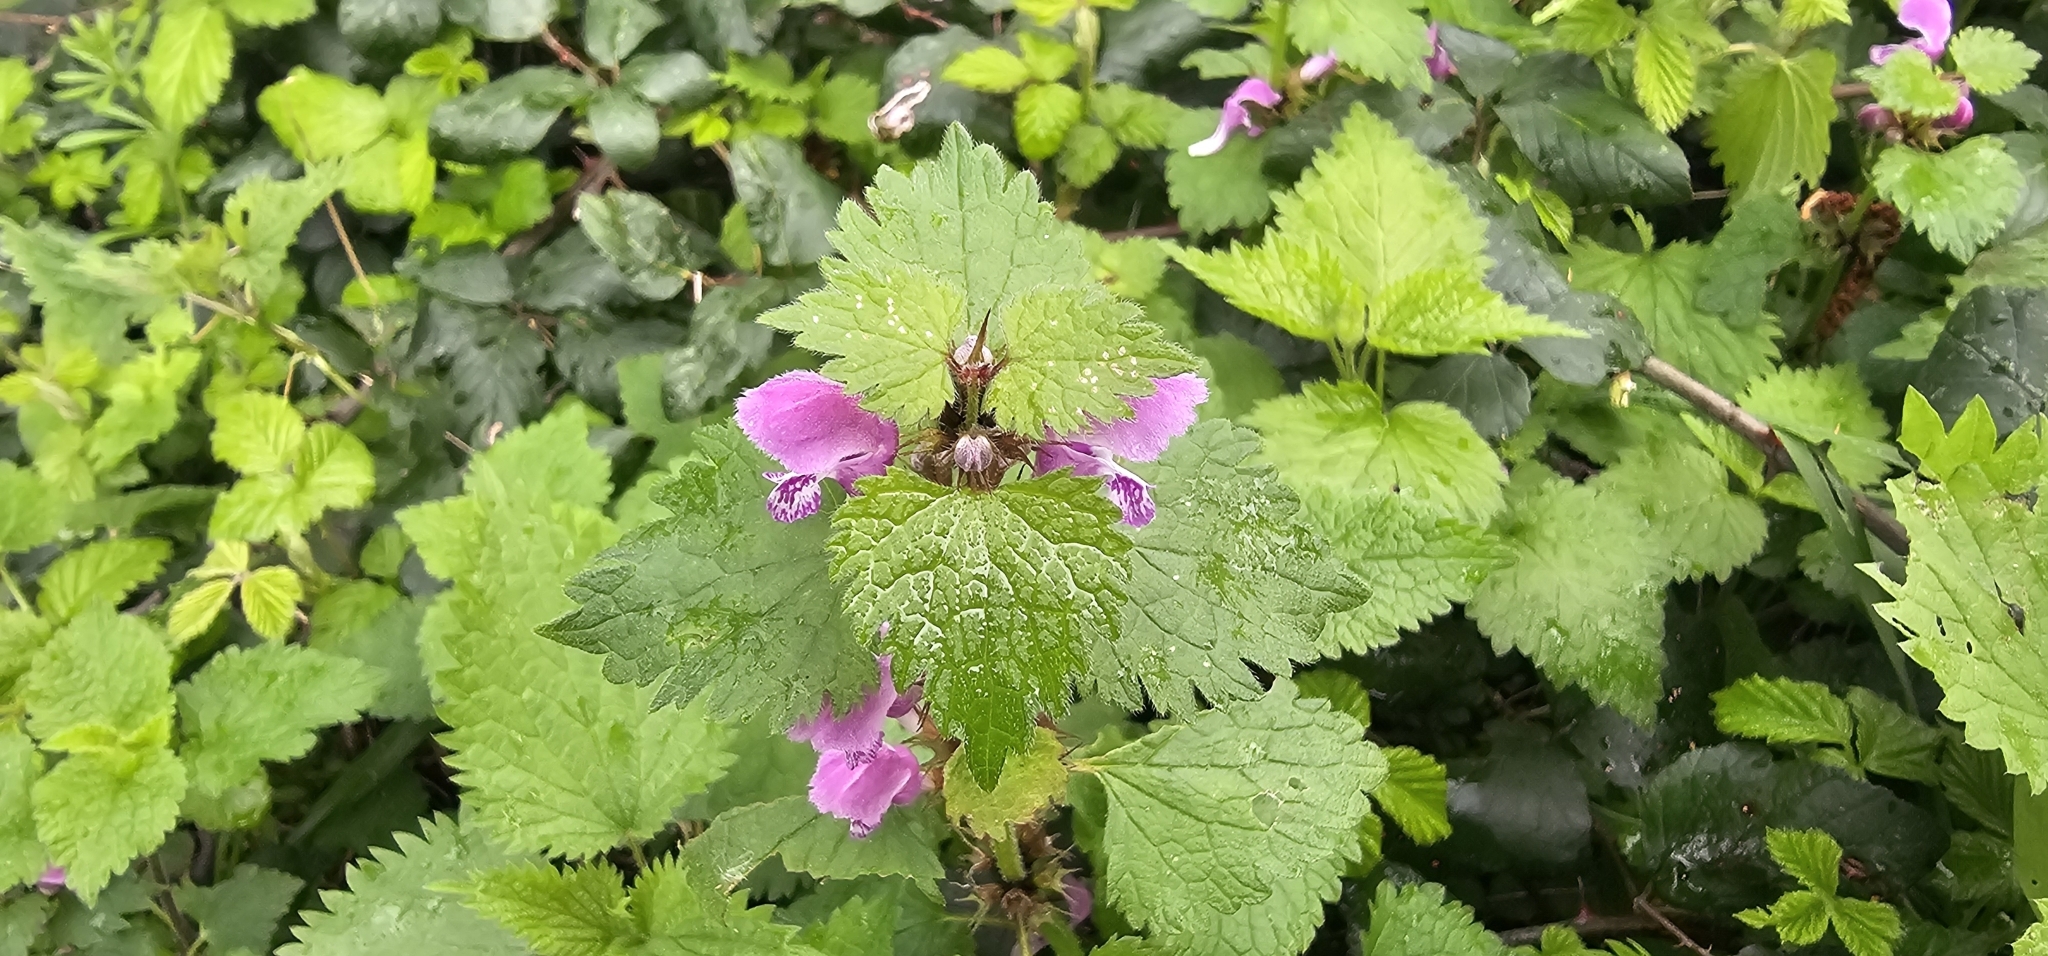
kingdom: Plantae
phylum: Tracheophyta
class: Magnoliopsida
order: Lamiales
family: Lamiaceae
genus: Lamium
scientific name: Lamium maculatum
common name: Spotted dead-nettle
